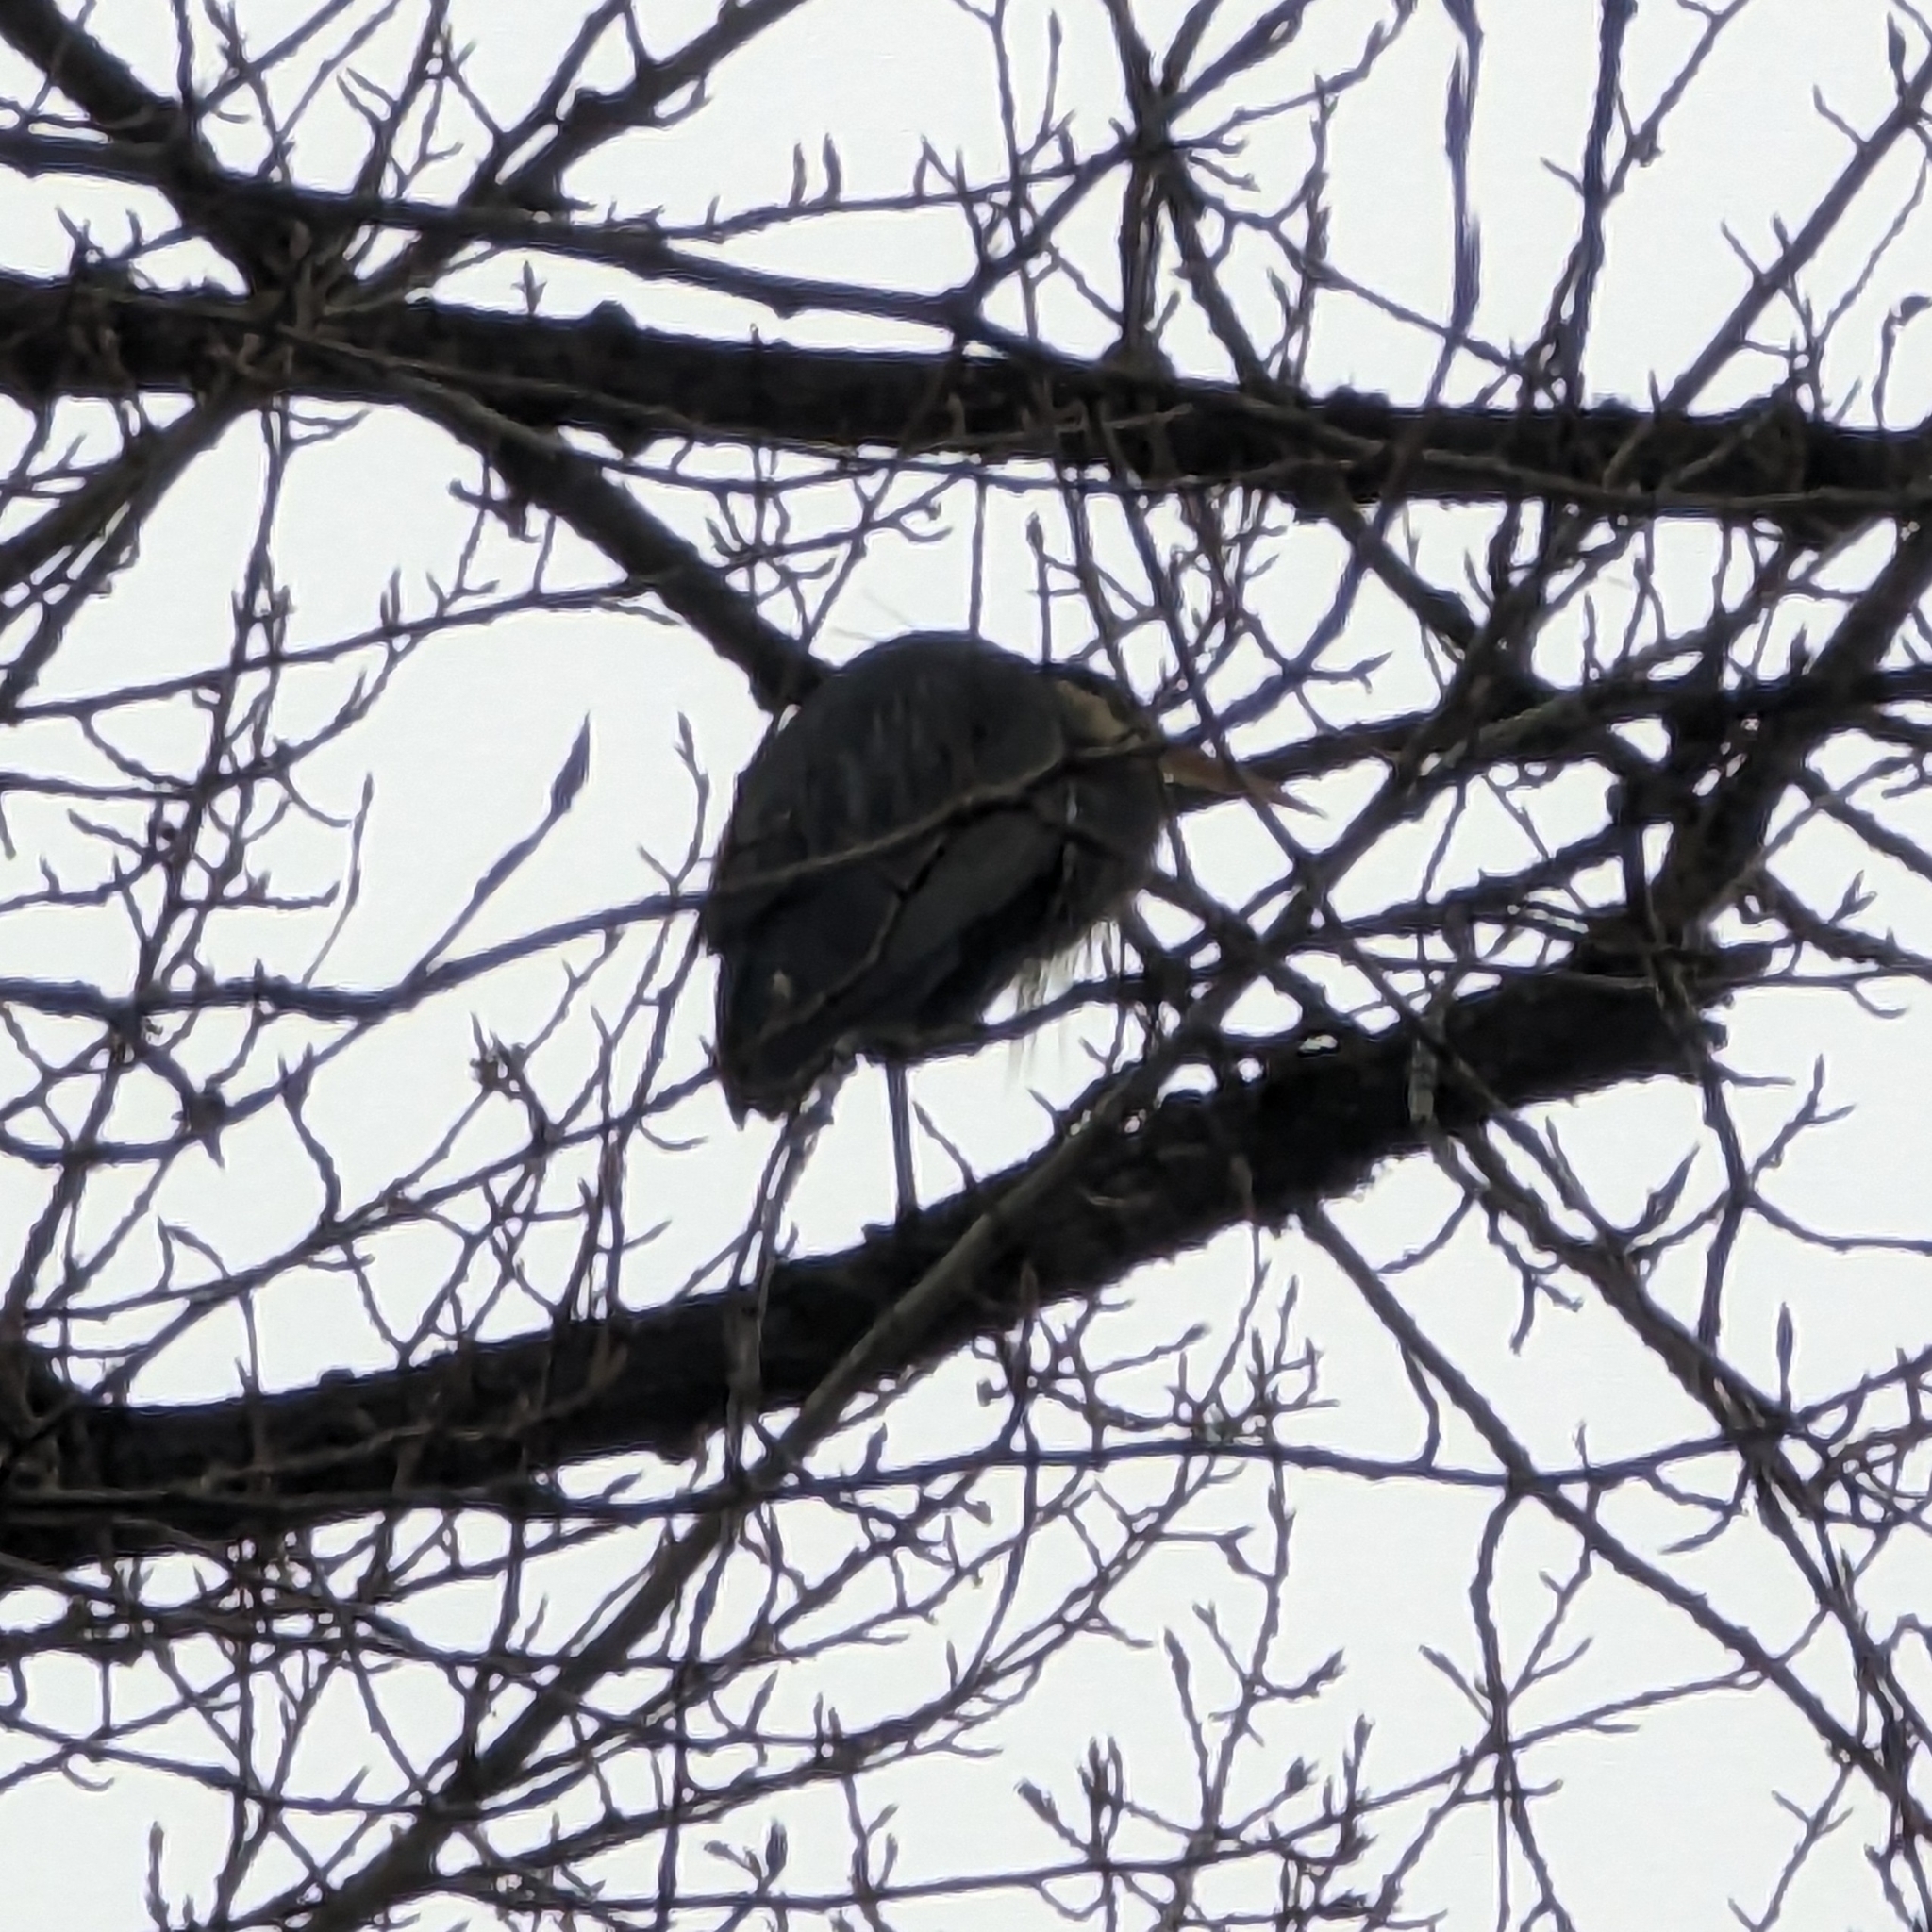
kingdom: Animalia
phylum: Chordata
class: Aves
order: Pelecaniformes
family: Ardeidae
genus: Ardea
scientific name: Ardea herodias
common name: Great blue heron
